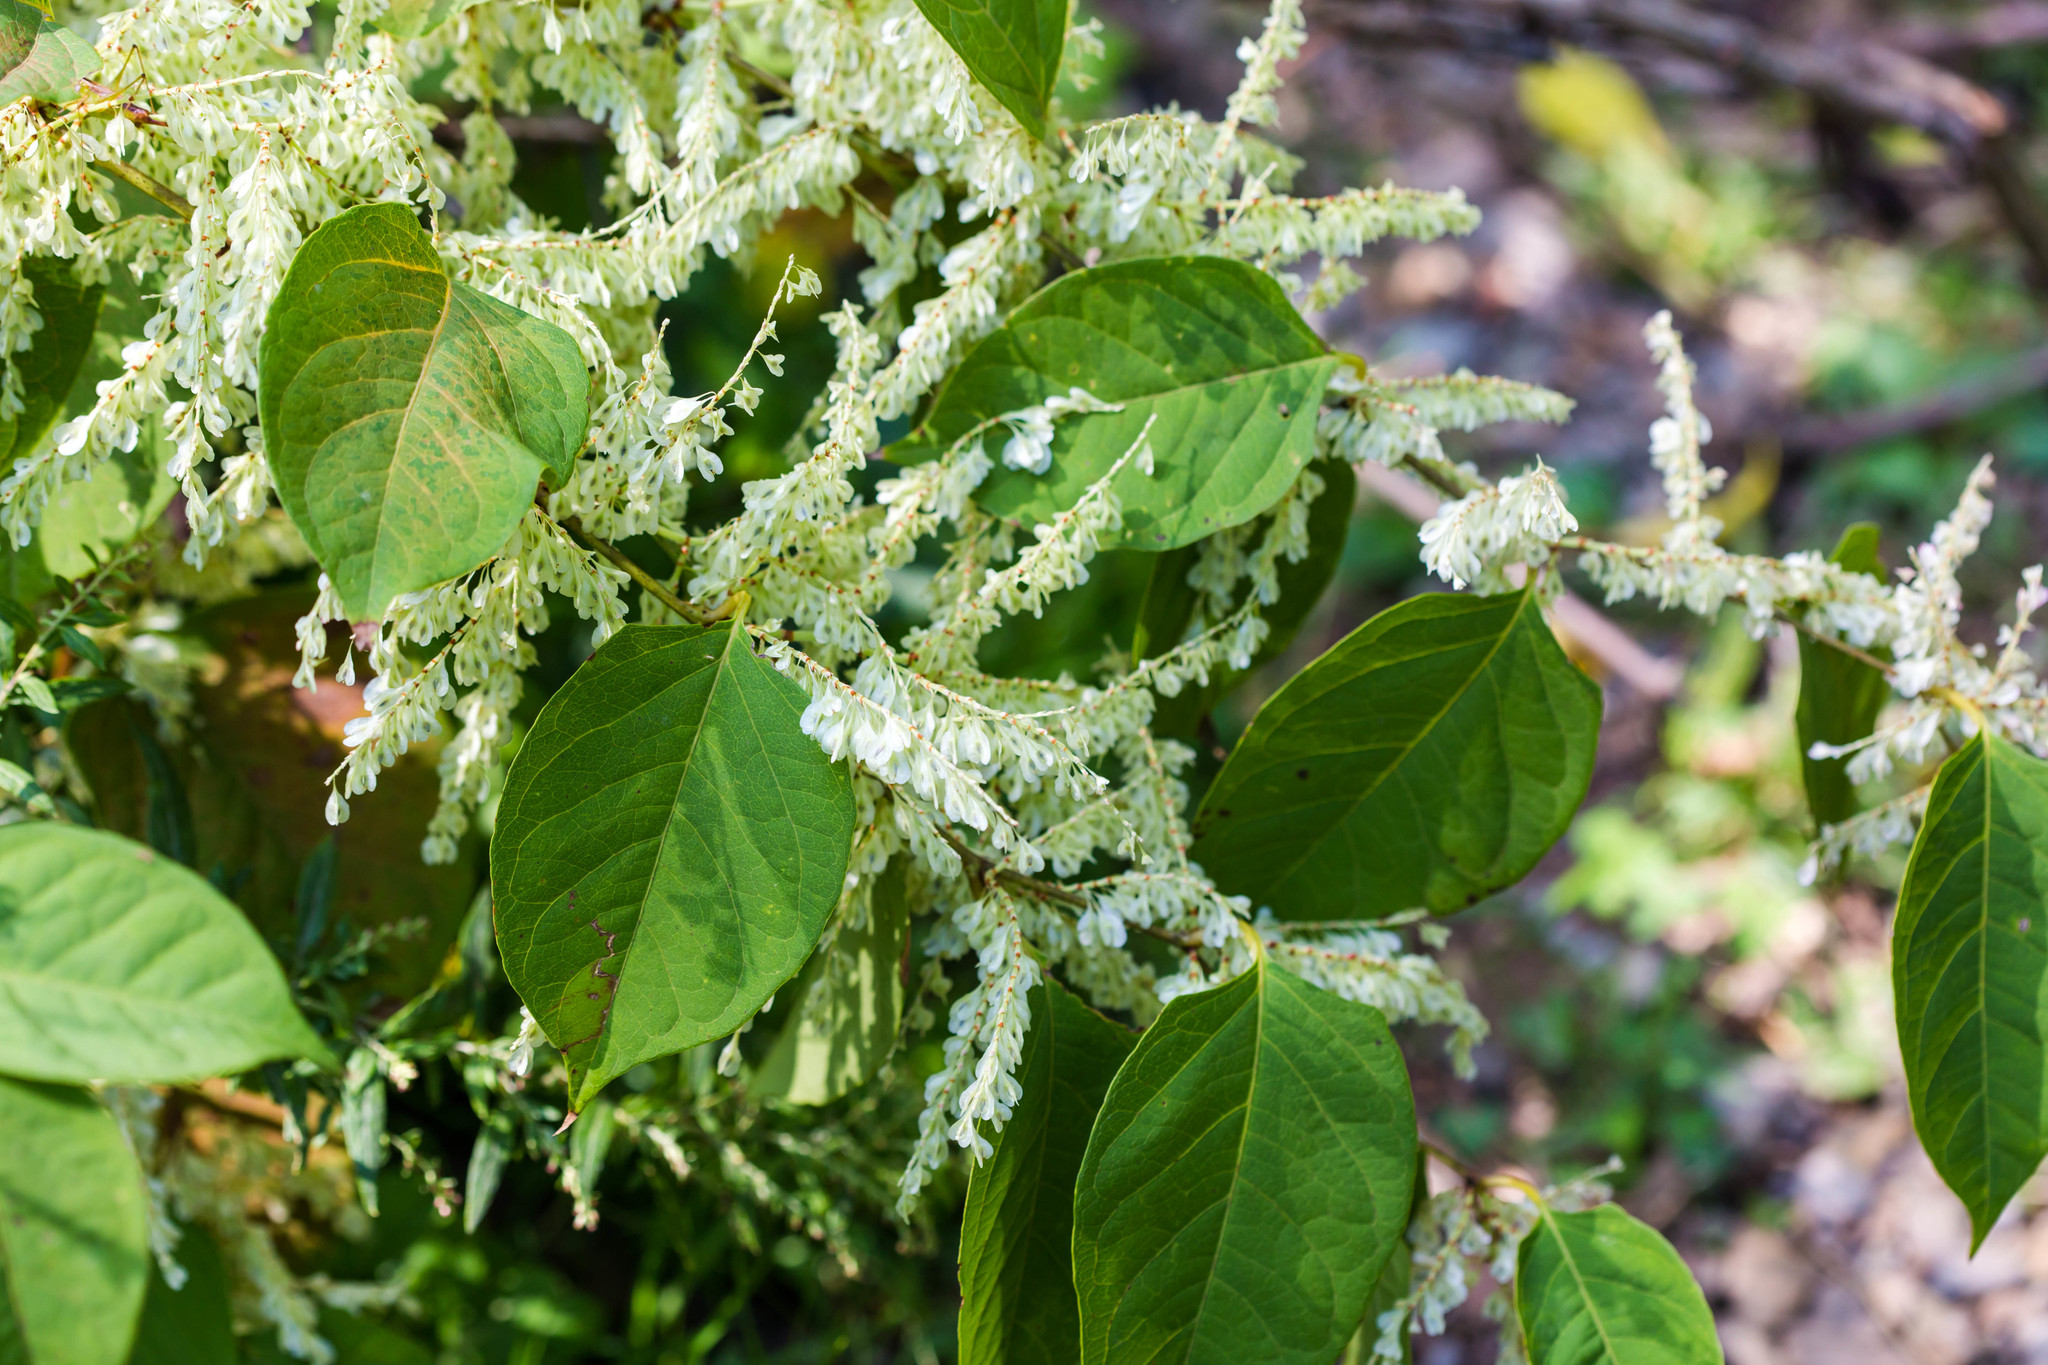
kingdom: Plantae
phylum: Tracheophyta
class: Magnoliopsida
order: Caryophyllales
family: Polygonaceae
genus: Reynoutria
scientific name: Reynoutria japonica
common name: Japanese knotweed
